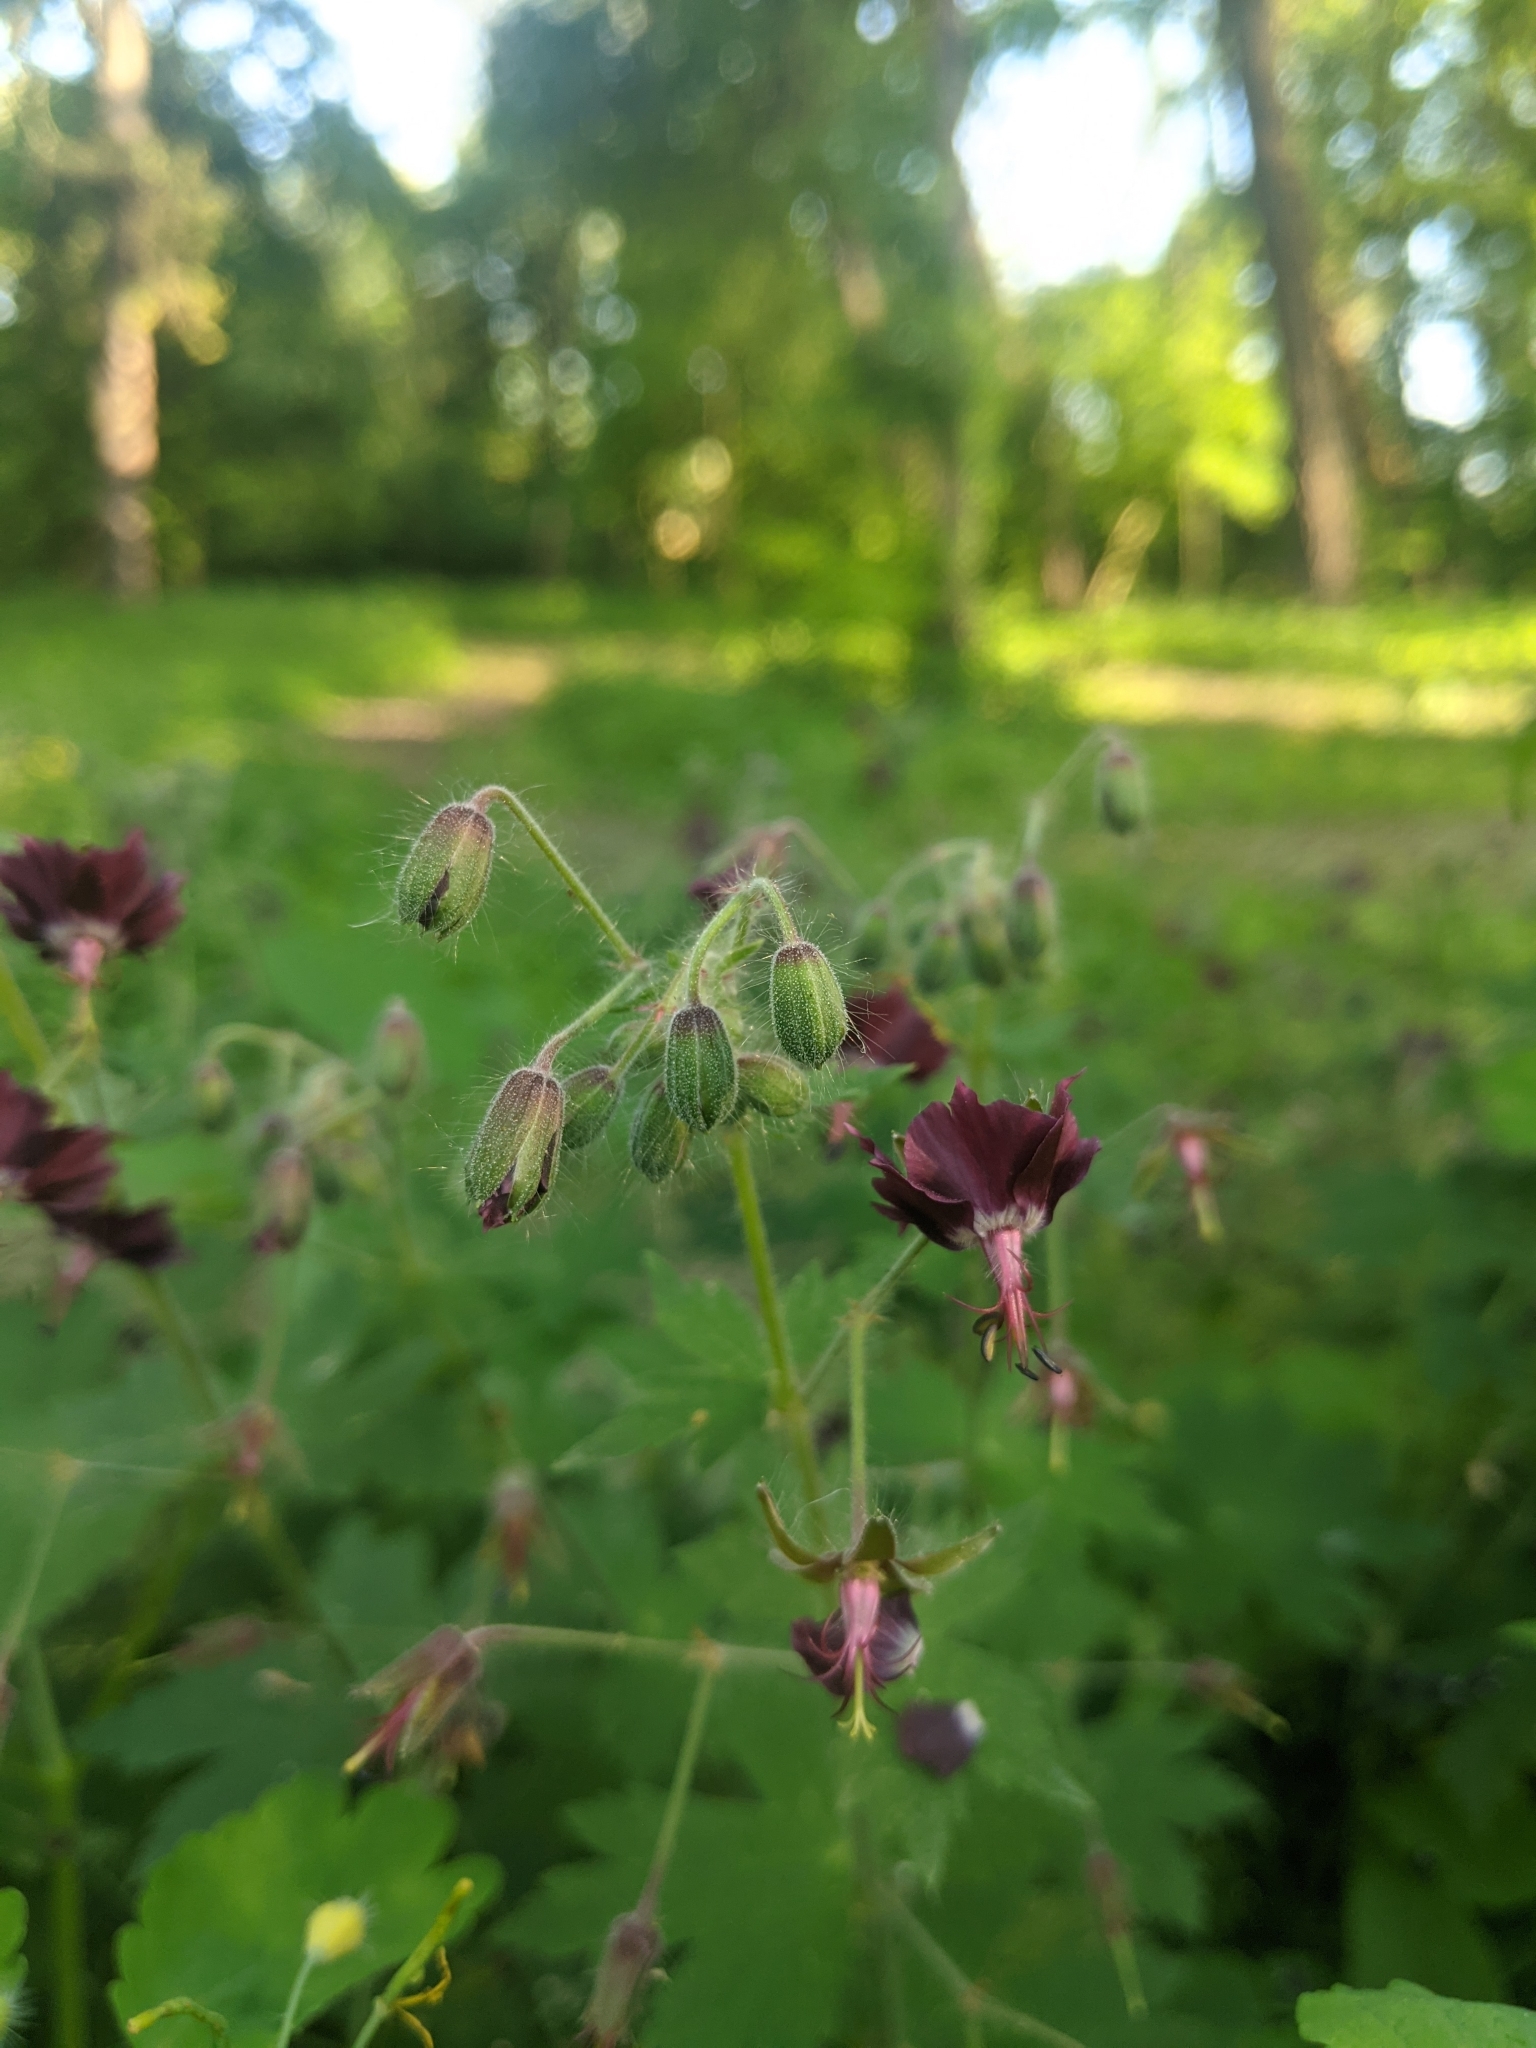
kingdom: Plantae
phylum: Tracheophyta
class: Magnoliopsida
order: Geraniales
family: Geraniaceae
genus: Geranium
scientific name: Geranium phaeum
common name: Dusky crane's-bill
